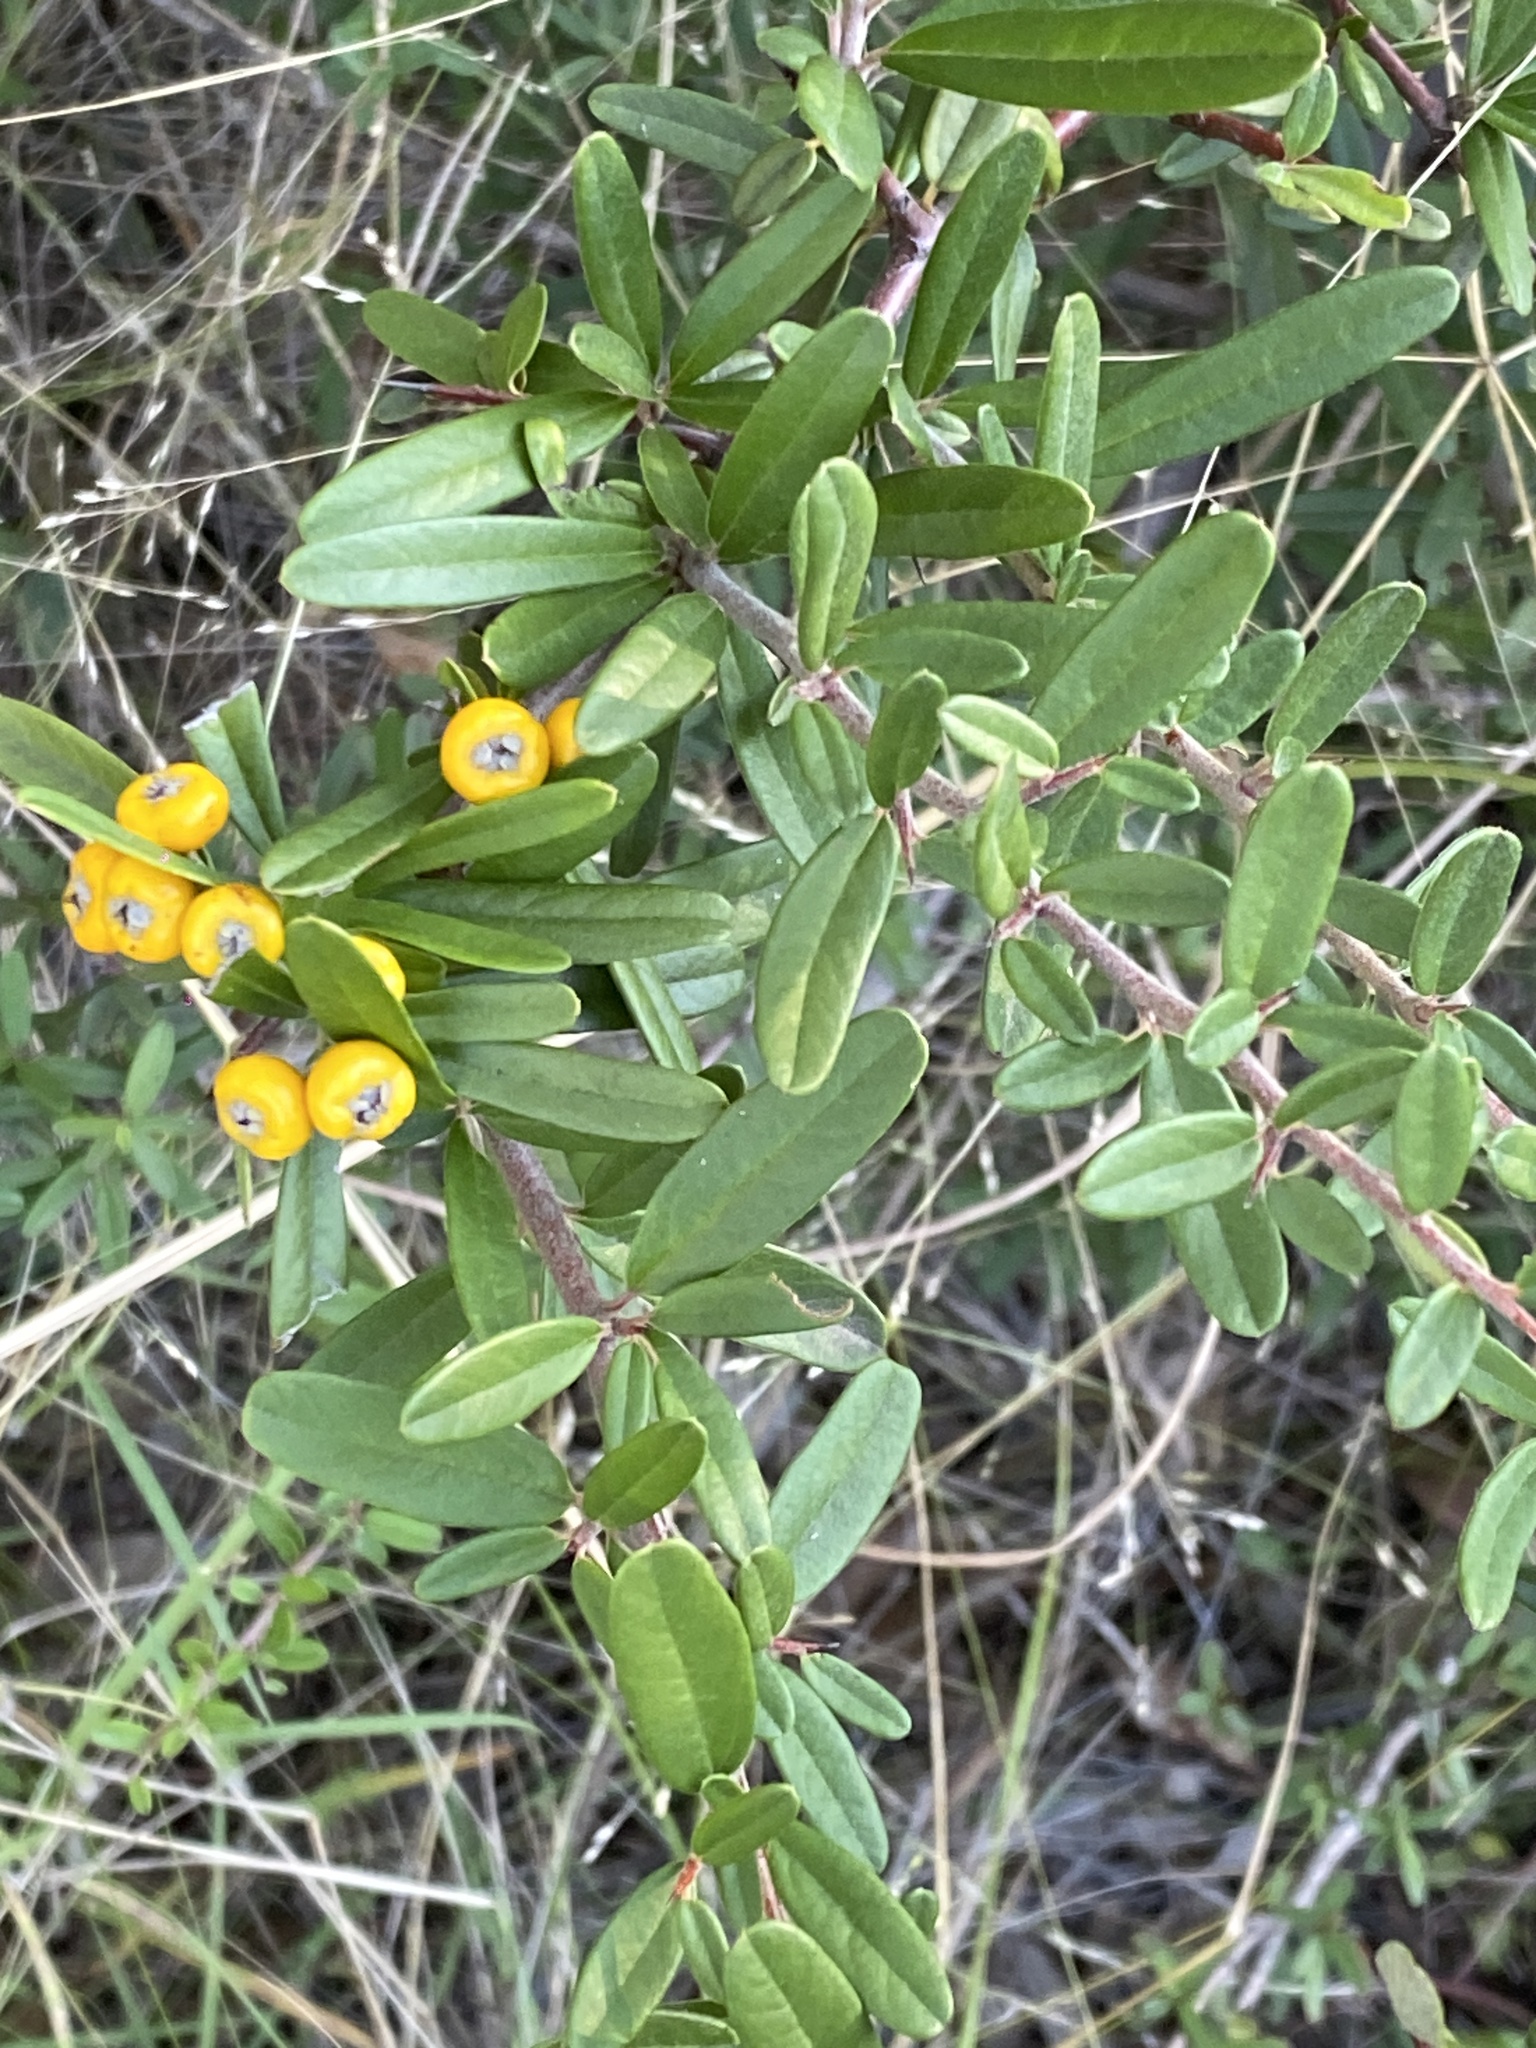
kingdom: Plantae
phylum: Tracheophyta
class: Magnoliopsida
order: Rosales
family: Rosaceae
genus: Pyracantha
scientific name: Pyracantha angustifolia
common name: Narrowleaf firethorn
